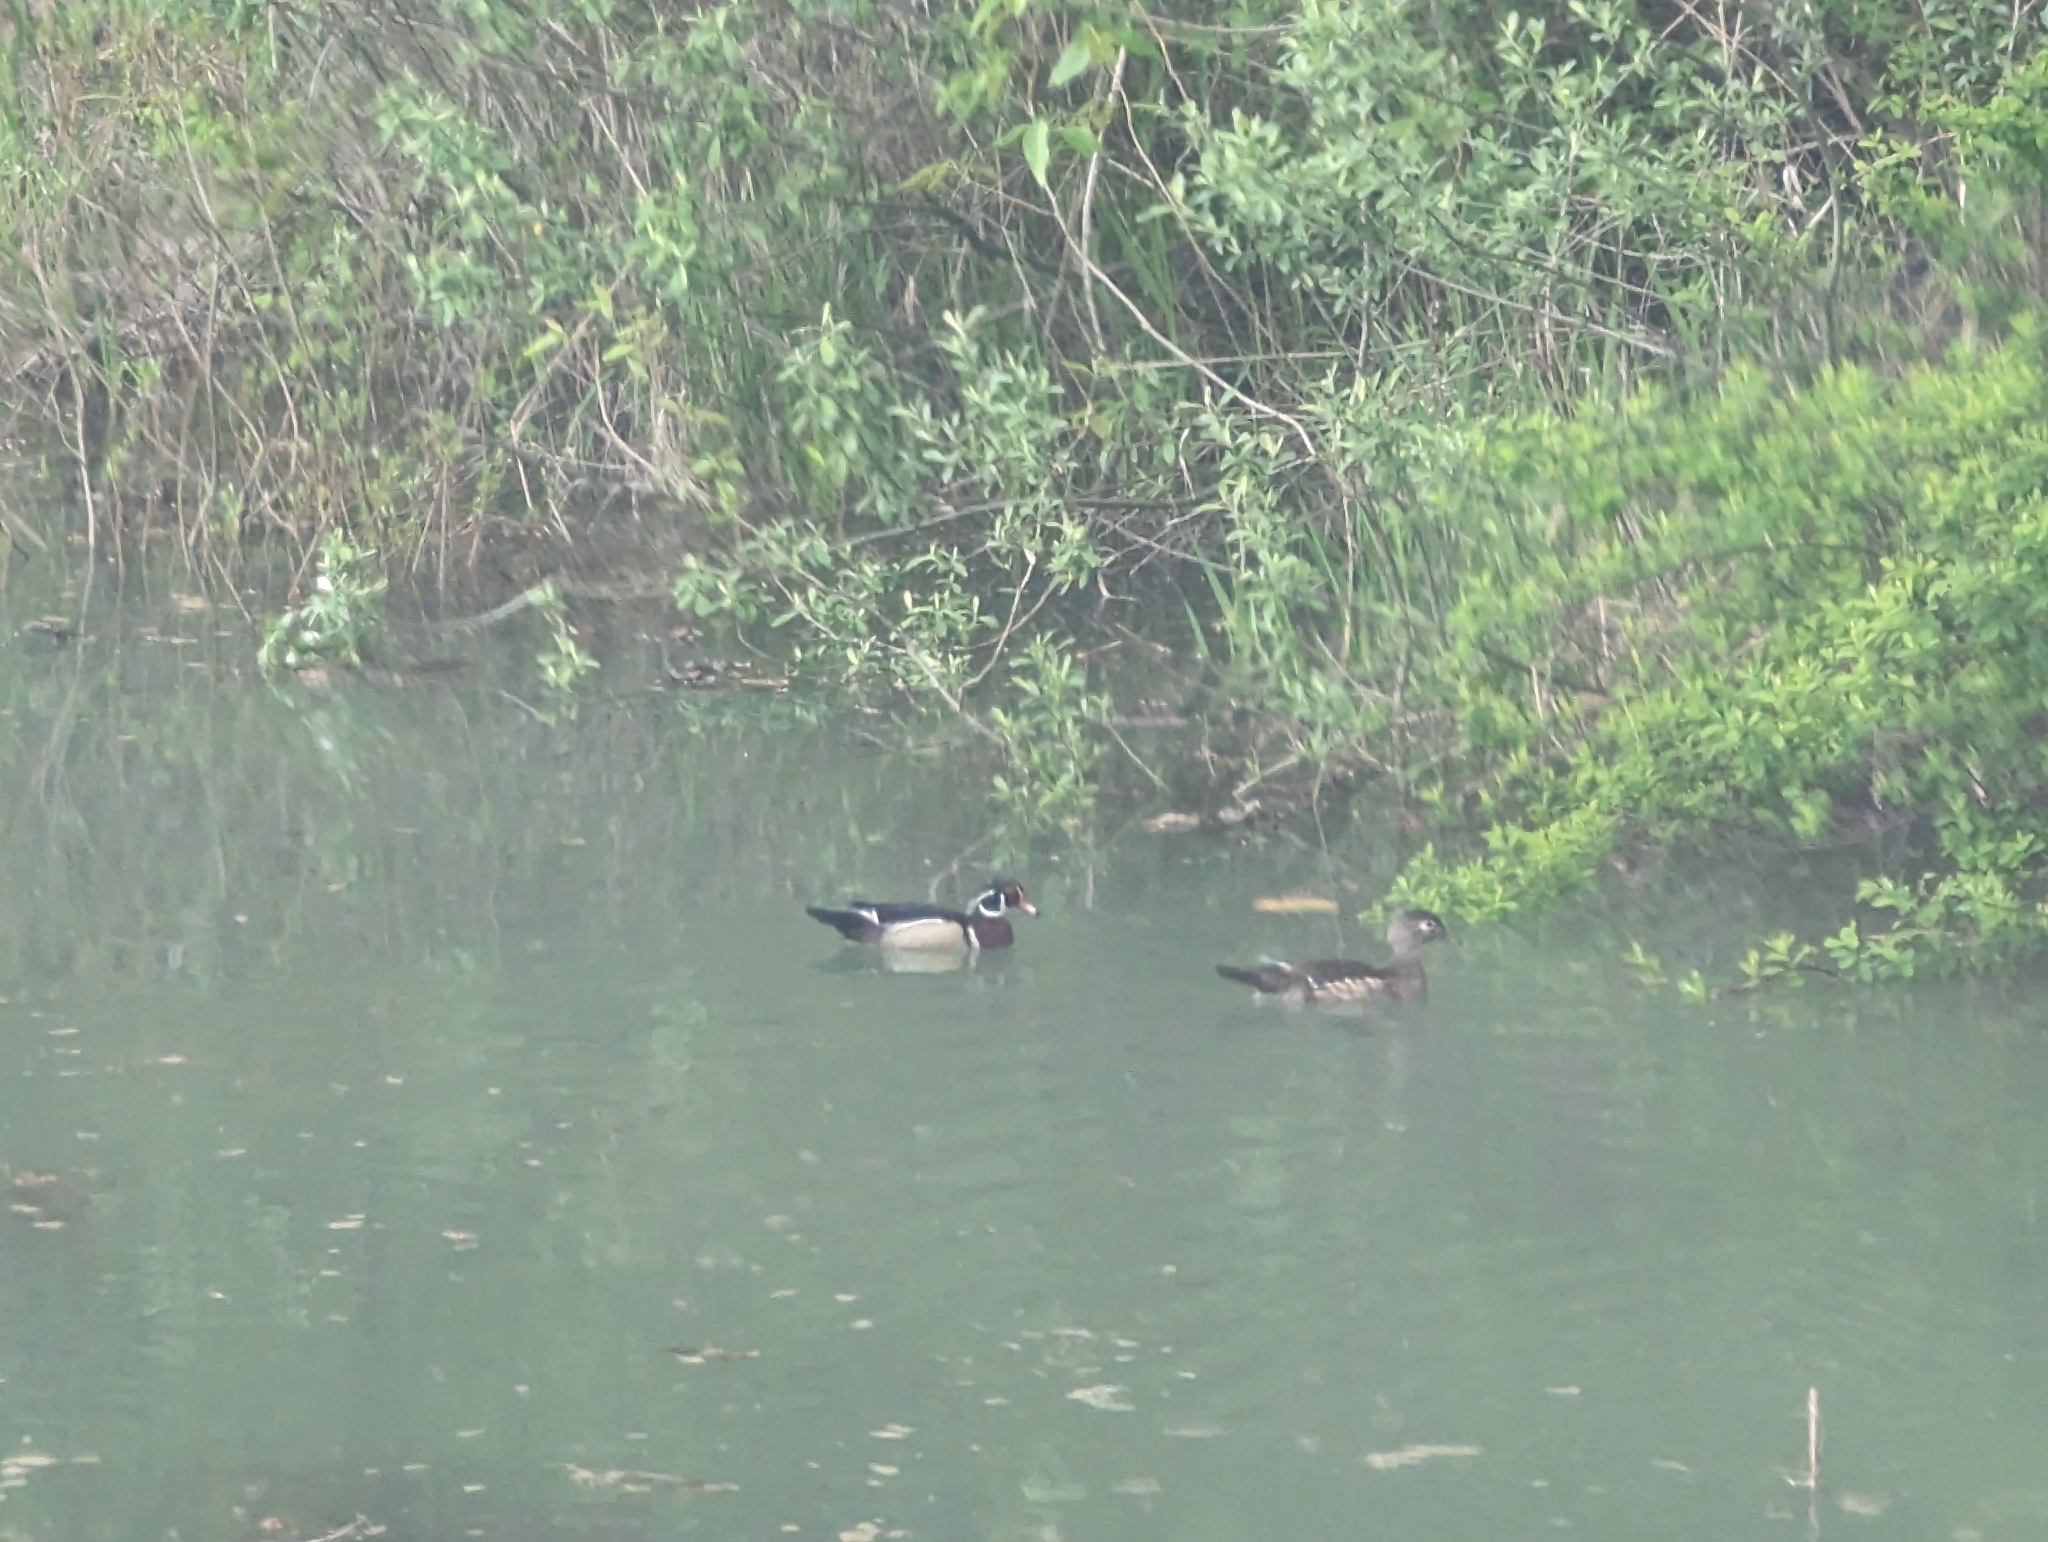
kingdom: Animalia
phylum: Chordata
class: Aves
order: Anseriformes
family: Anatidae
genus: Aix
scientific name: Aix sponsa
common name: Wood duck
